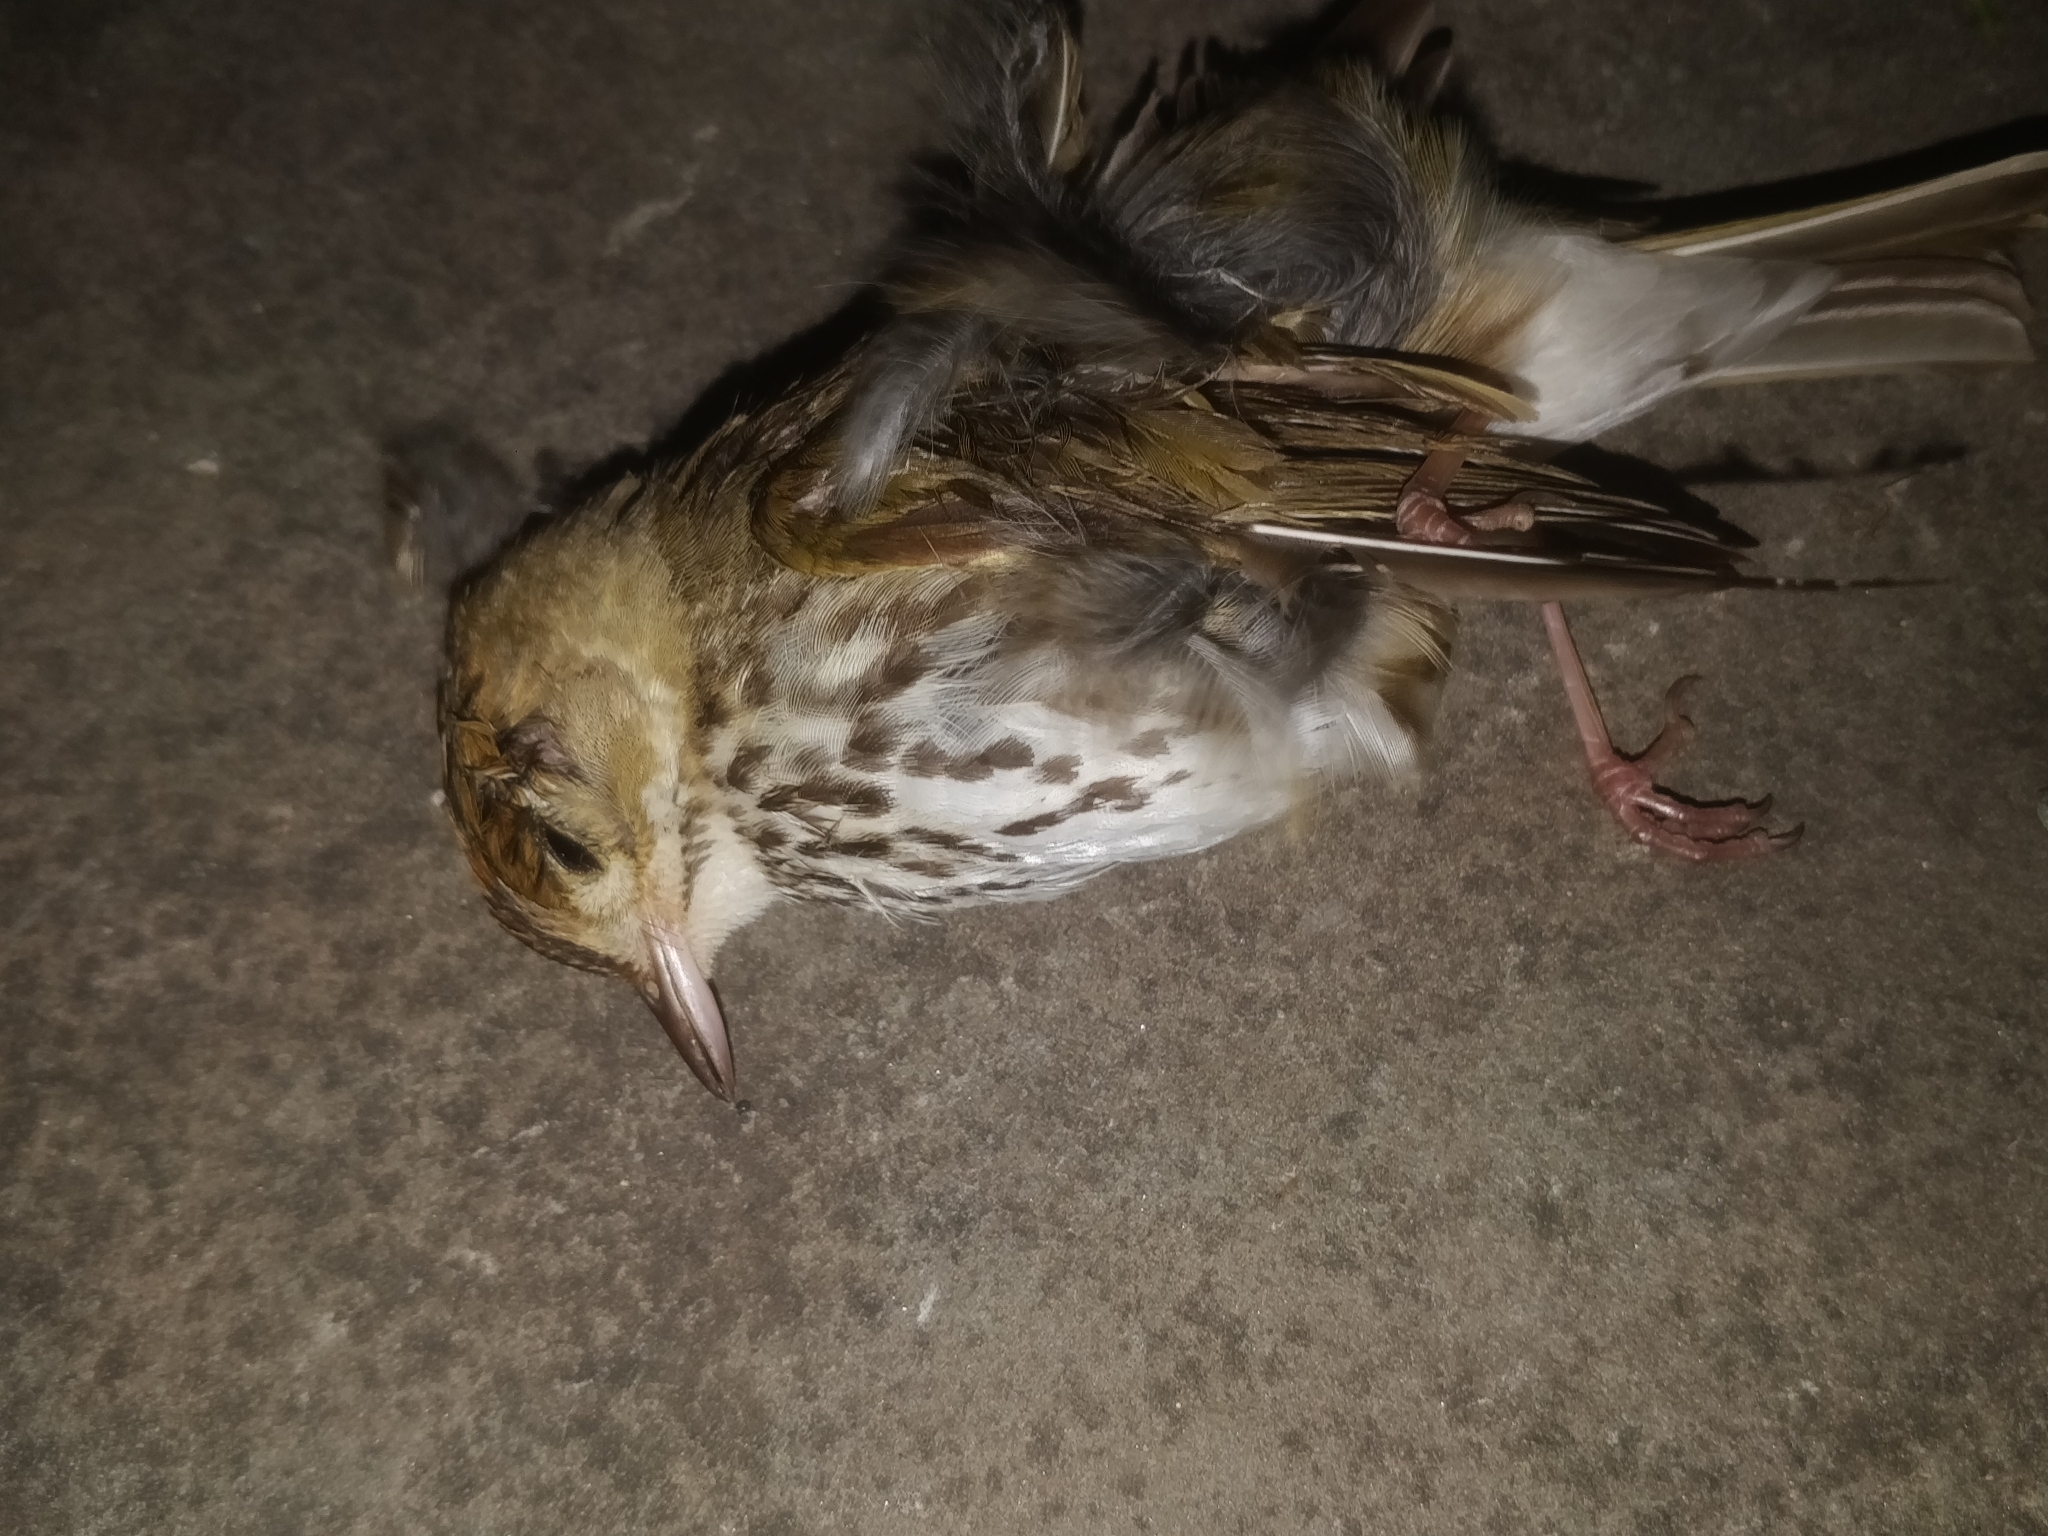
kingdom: Animalia
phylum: Chordata
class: Aves
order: Passeriformes
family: Parulidae
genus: Seiurus
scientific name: Seiurus aurocapilla
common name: Ovenbird
